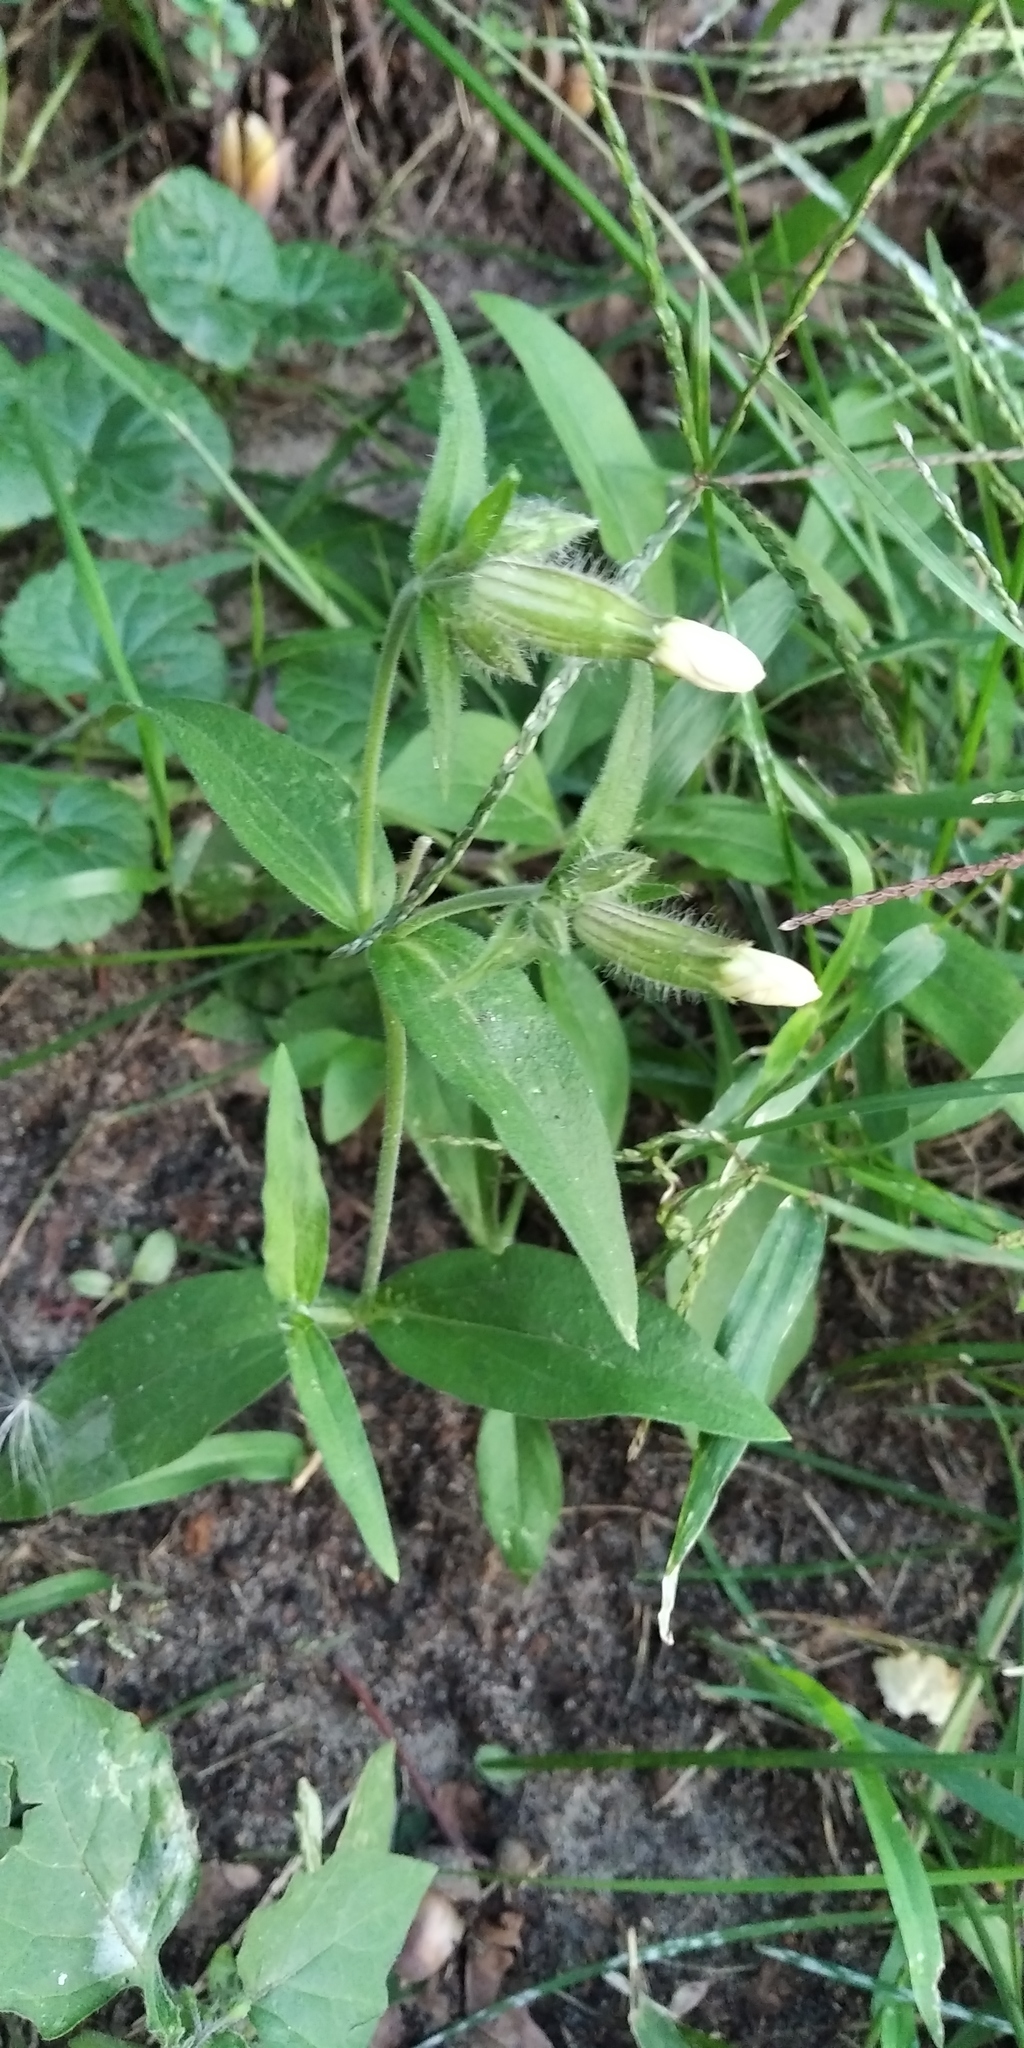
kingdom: Plantae
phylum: Tracheophyta
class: Magnoliopsida
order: Caryophyllales
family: Caryophyllaceae
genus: Silene
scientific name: Silene latifolia
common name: White campion
